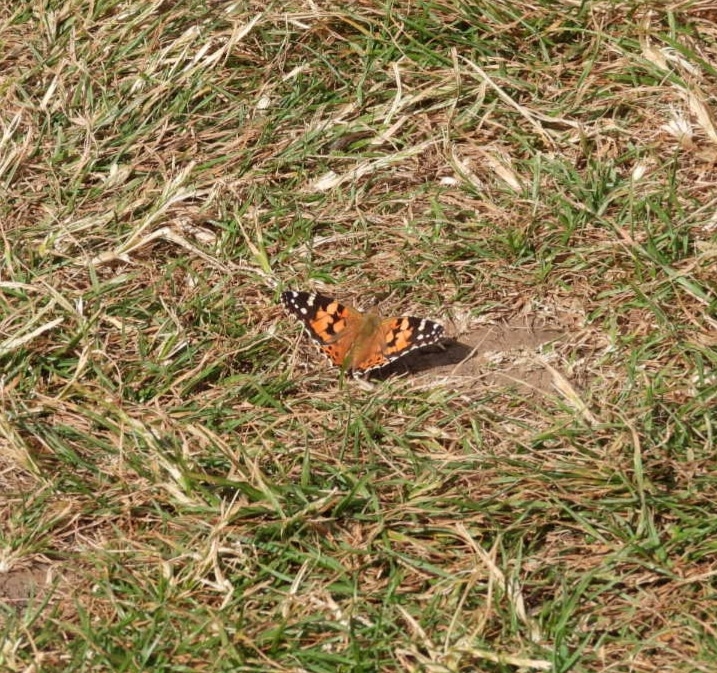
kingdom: Animalia
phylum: Arthropoda
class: Insecta
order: Lepidoptera
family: Nymphalidae
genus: Vanessa
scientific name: Vanessa cardui
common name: Painted lady
